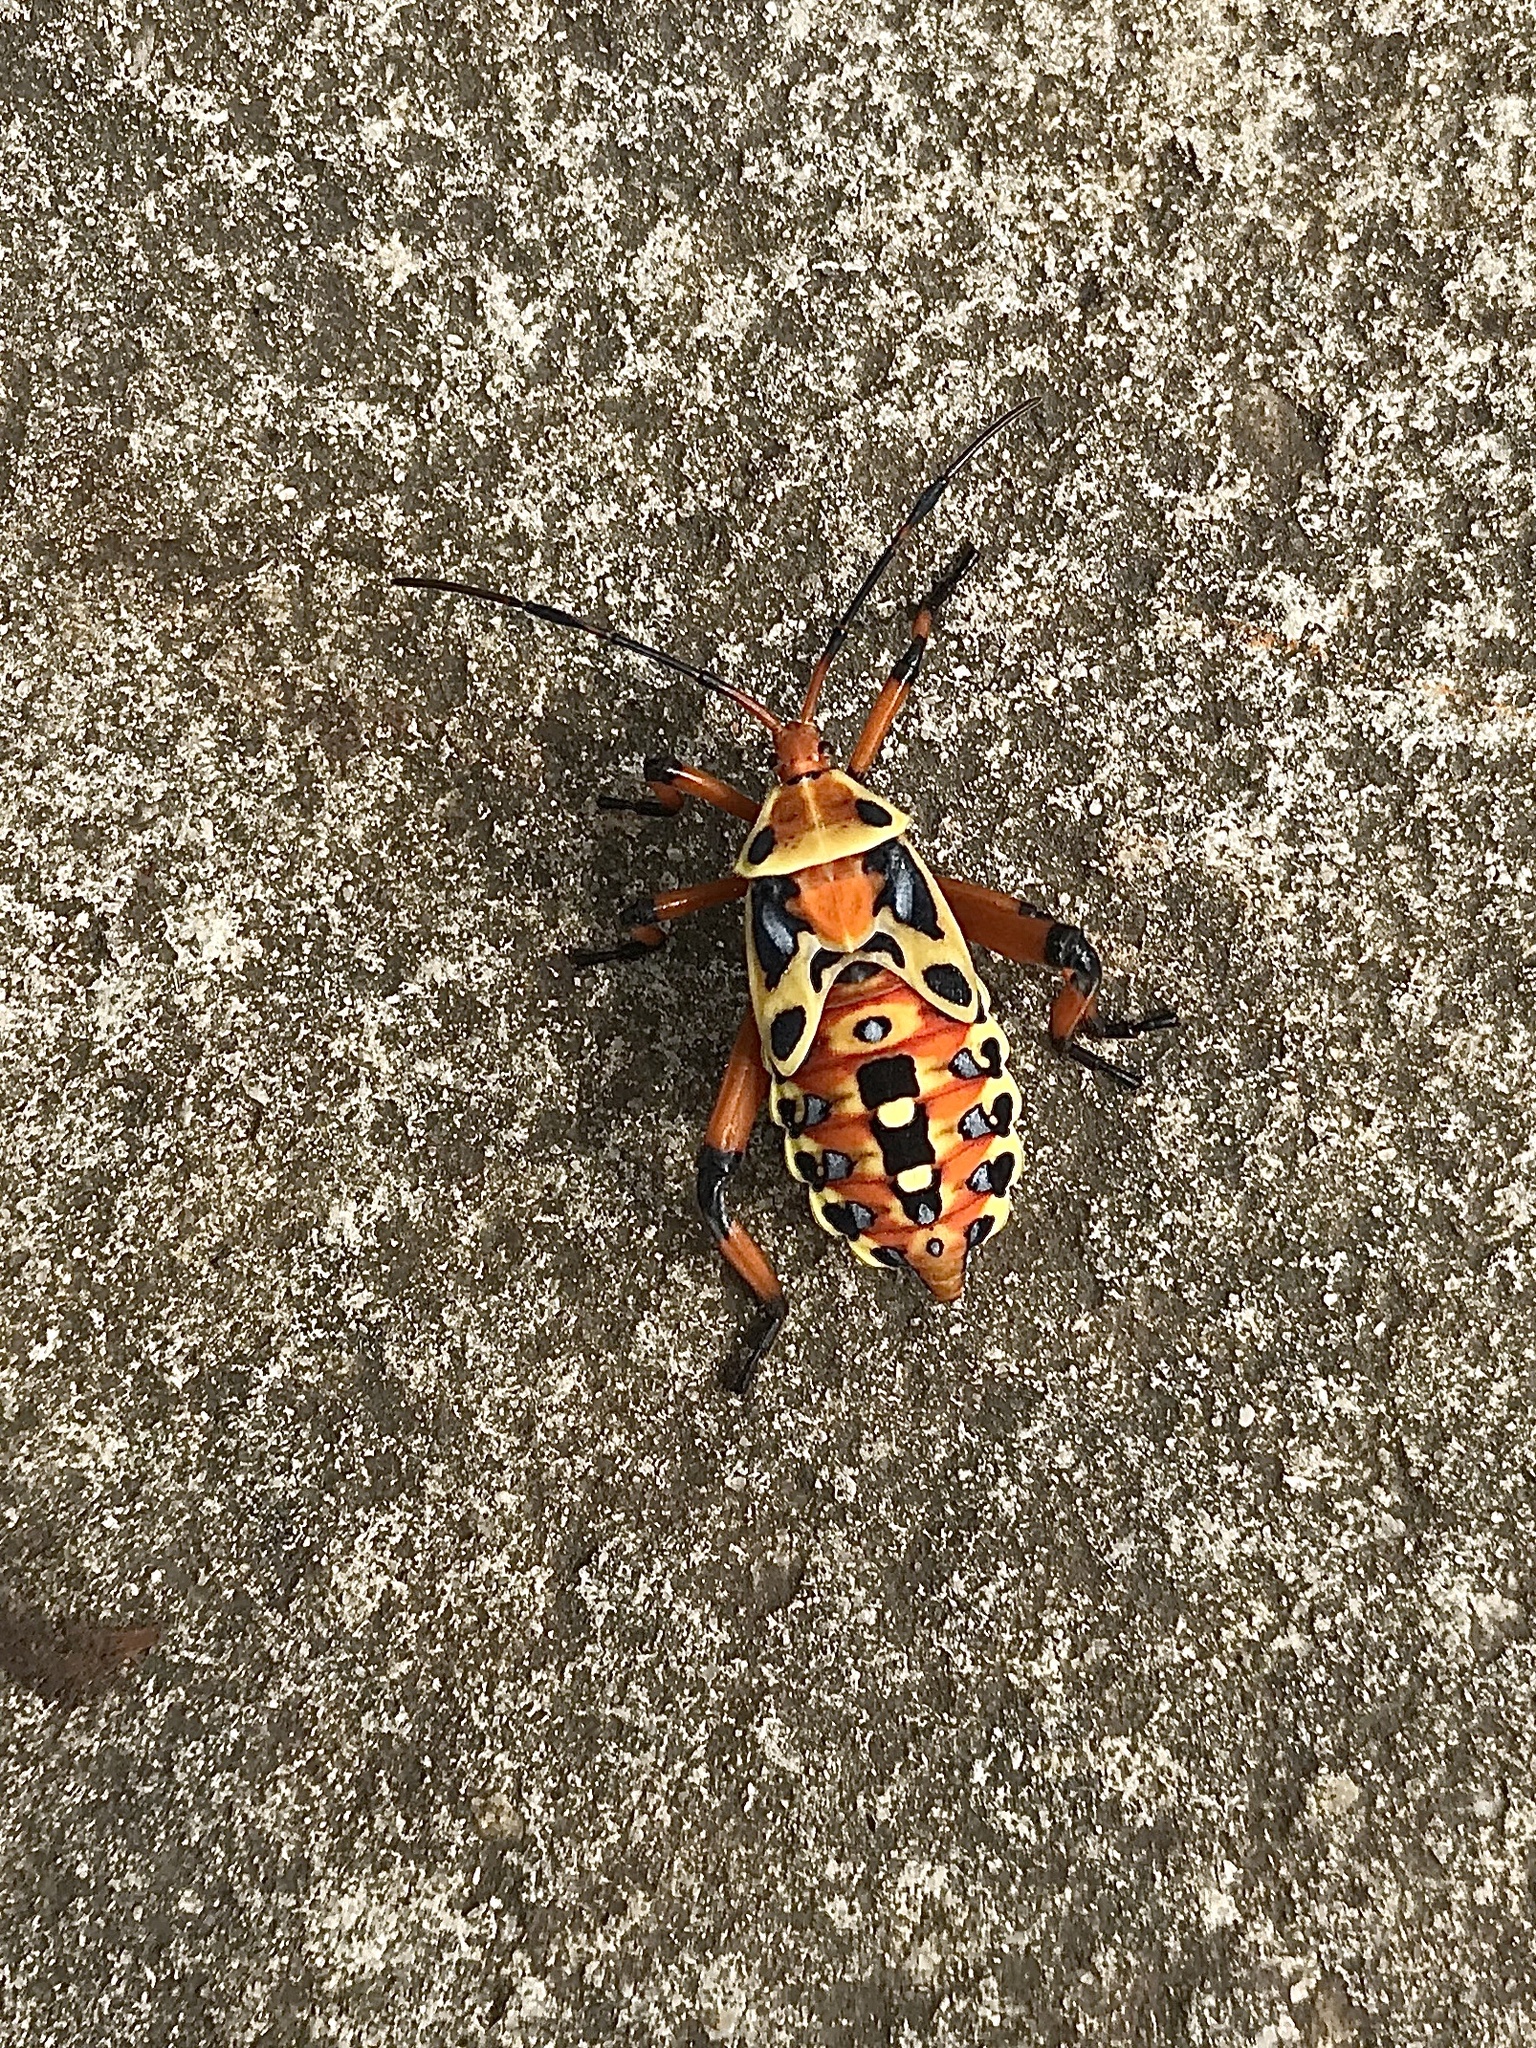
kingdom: Animalia
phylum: Arthropoda
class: Insecta
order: Hemiptera
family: Coreidae
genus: Pachylis
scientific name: Pachylis nervosus
